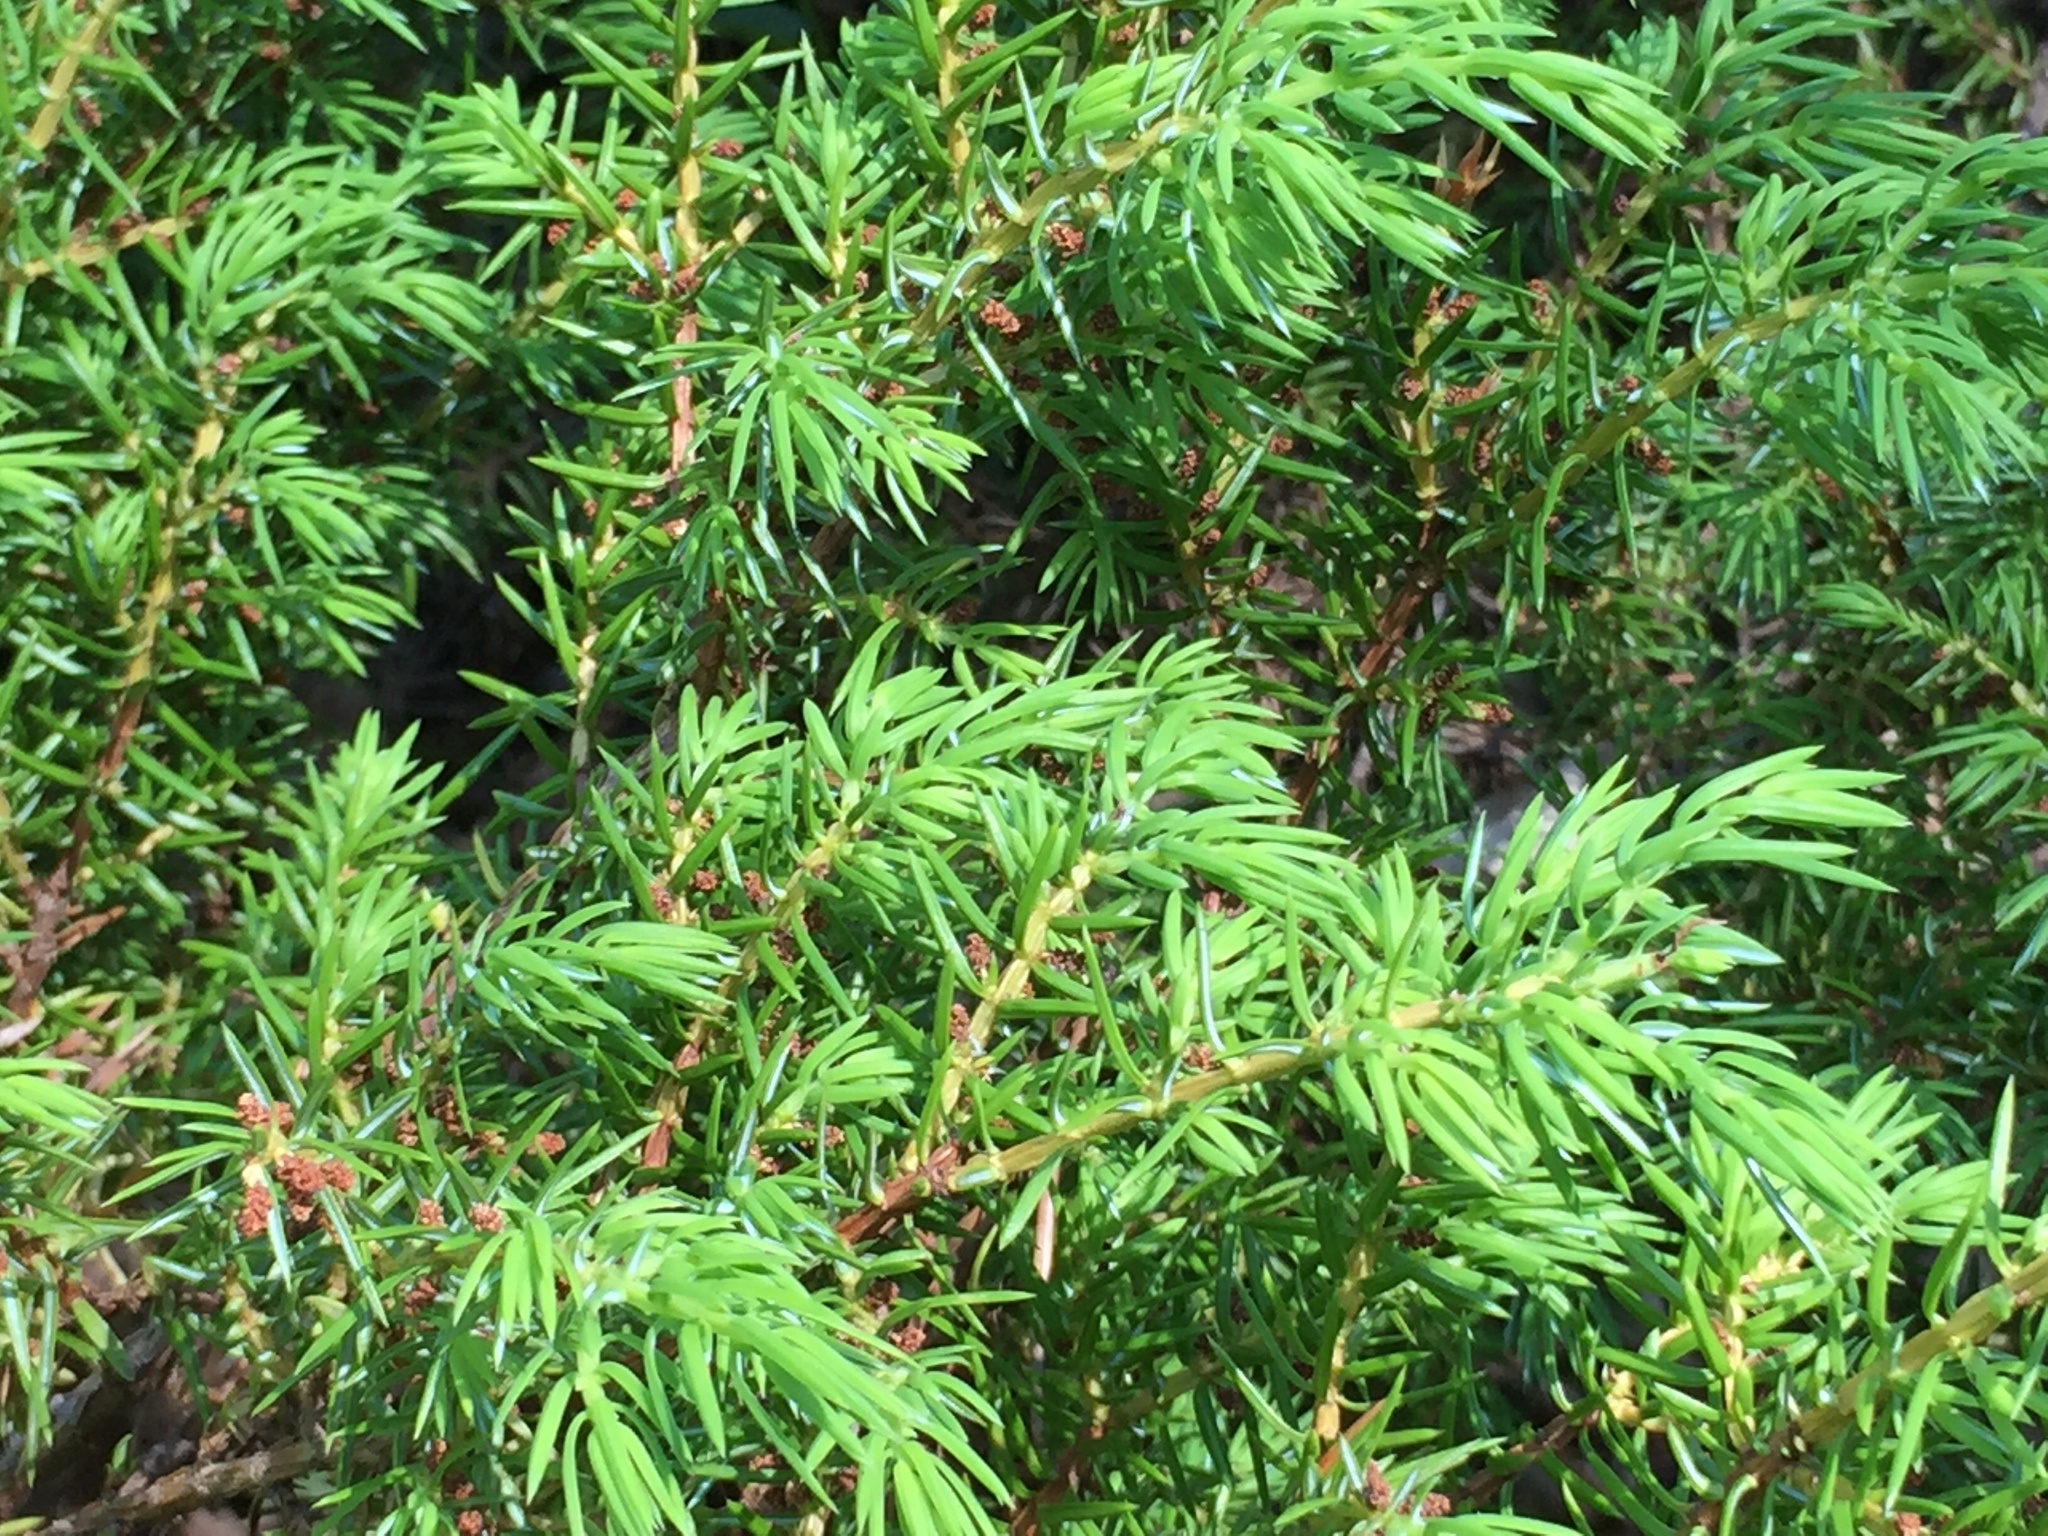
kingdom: Plantae
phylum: Tracheophyta
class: Pinopsida
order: Pinales
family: Cupressaceae
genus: Juniperus
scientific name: Juniperus communis
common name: Common juniper
